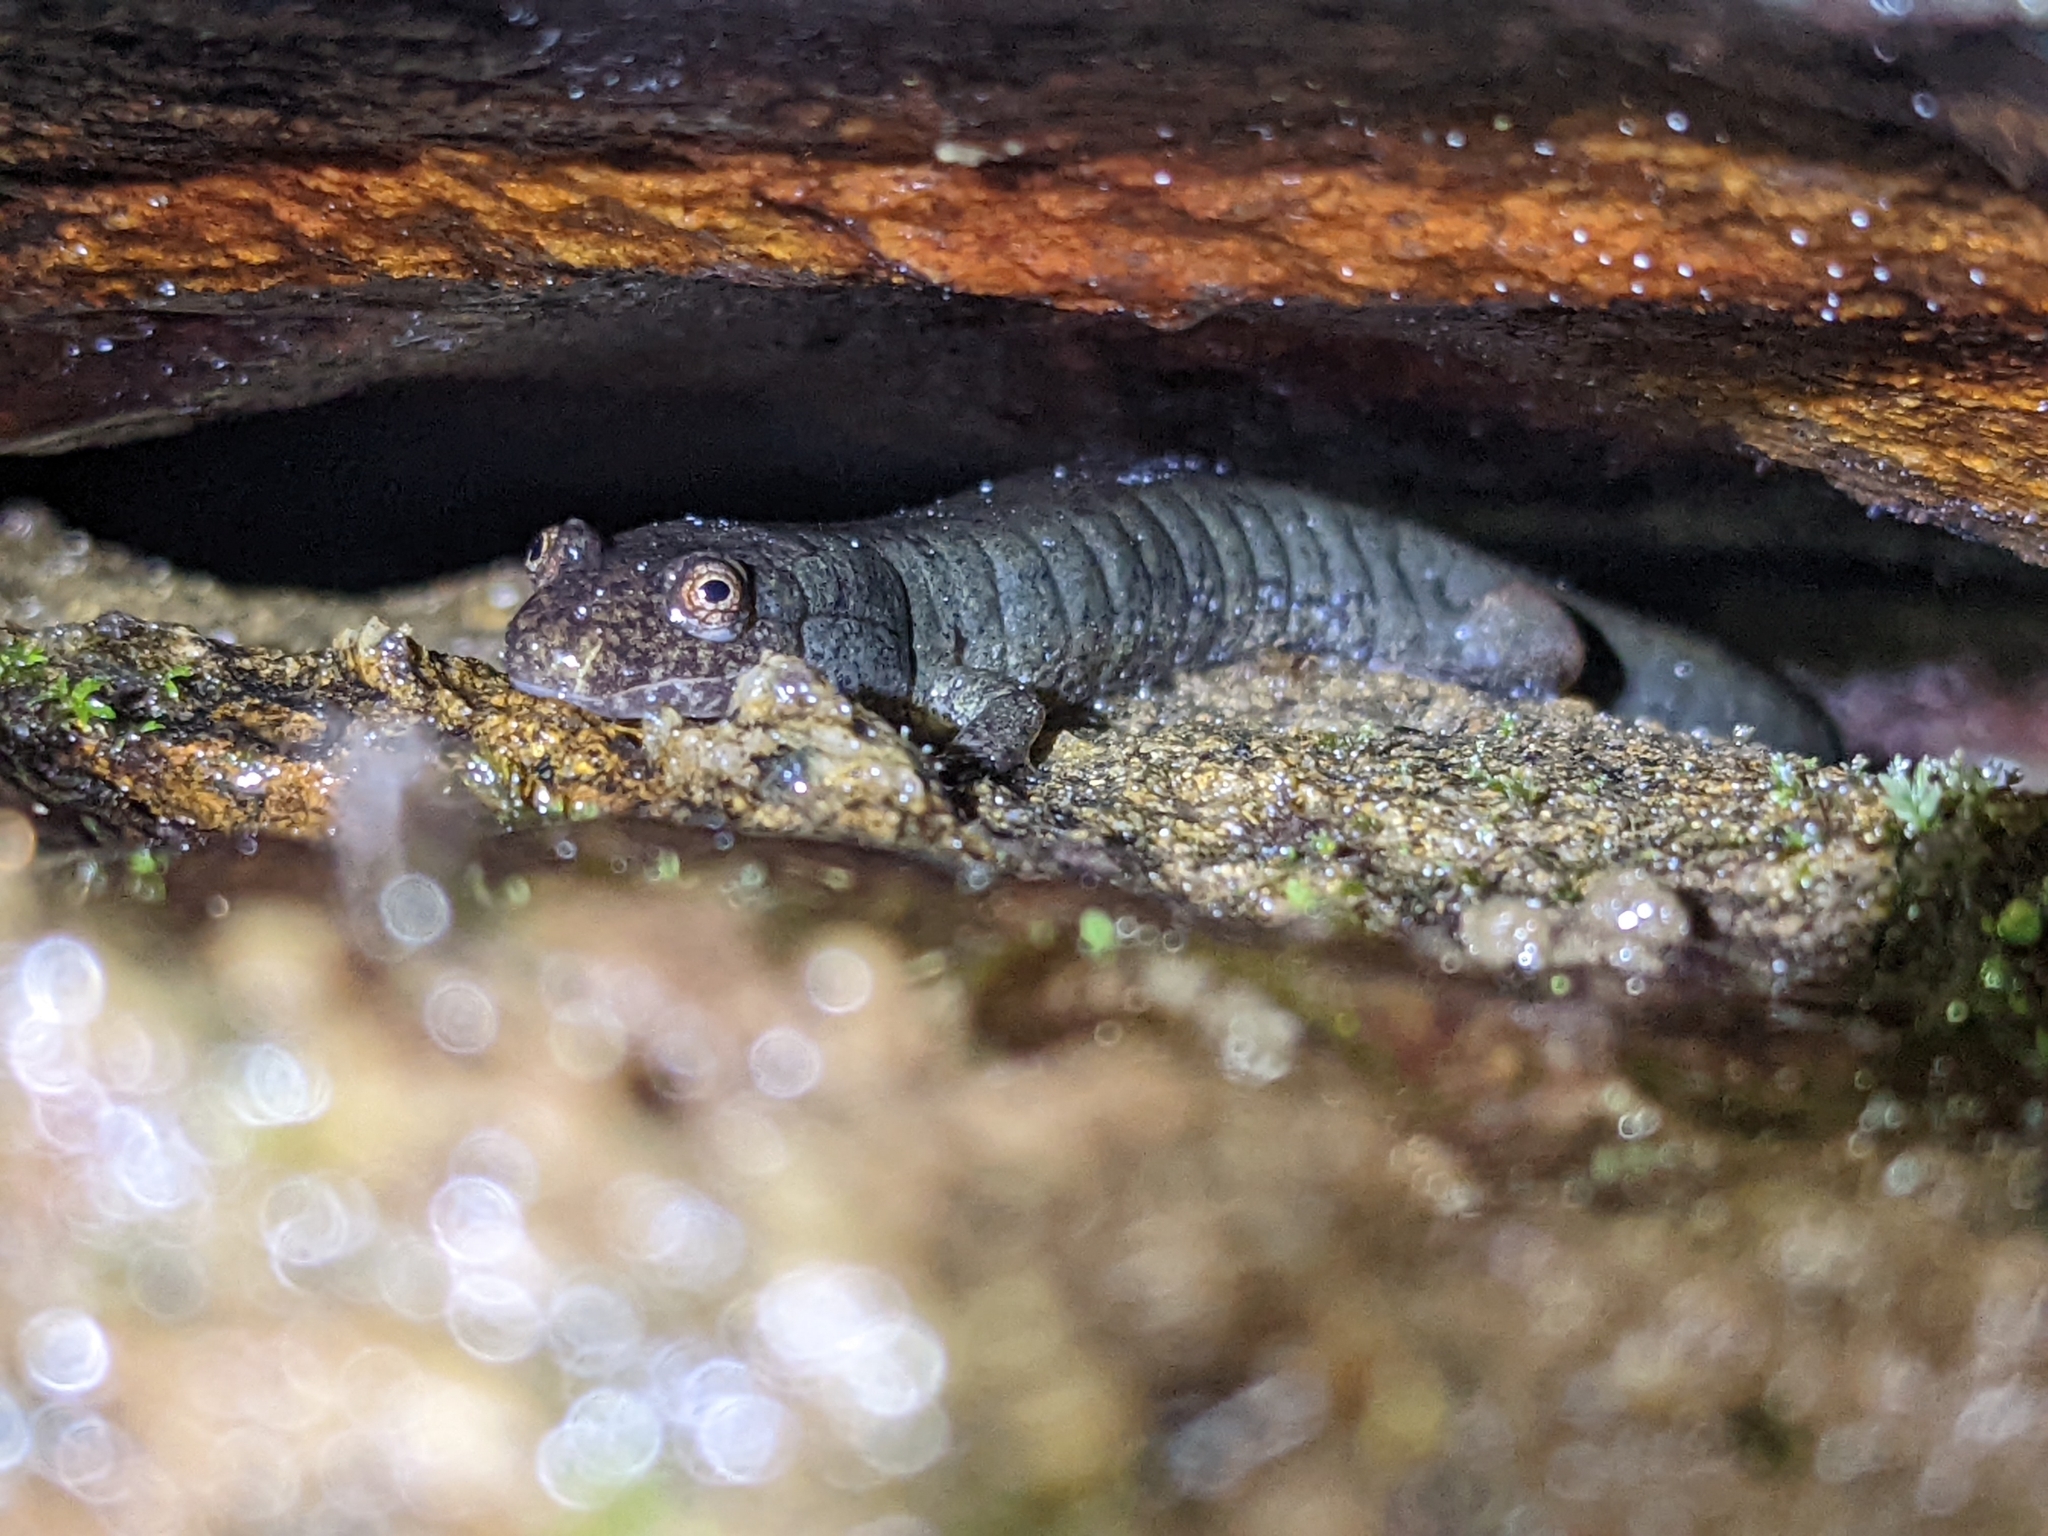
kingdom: Animalia
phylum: Chordata
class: Amphibia
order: Caudata
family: Plethodontidae
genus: Desmognathus
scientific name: Desmognathus monticola
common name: Seal salamander
